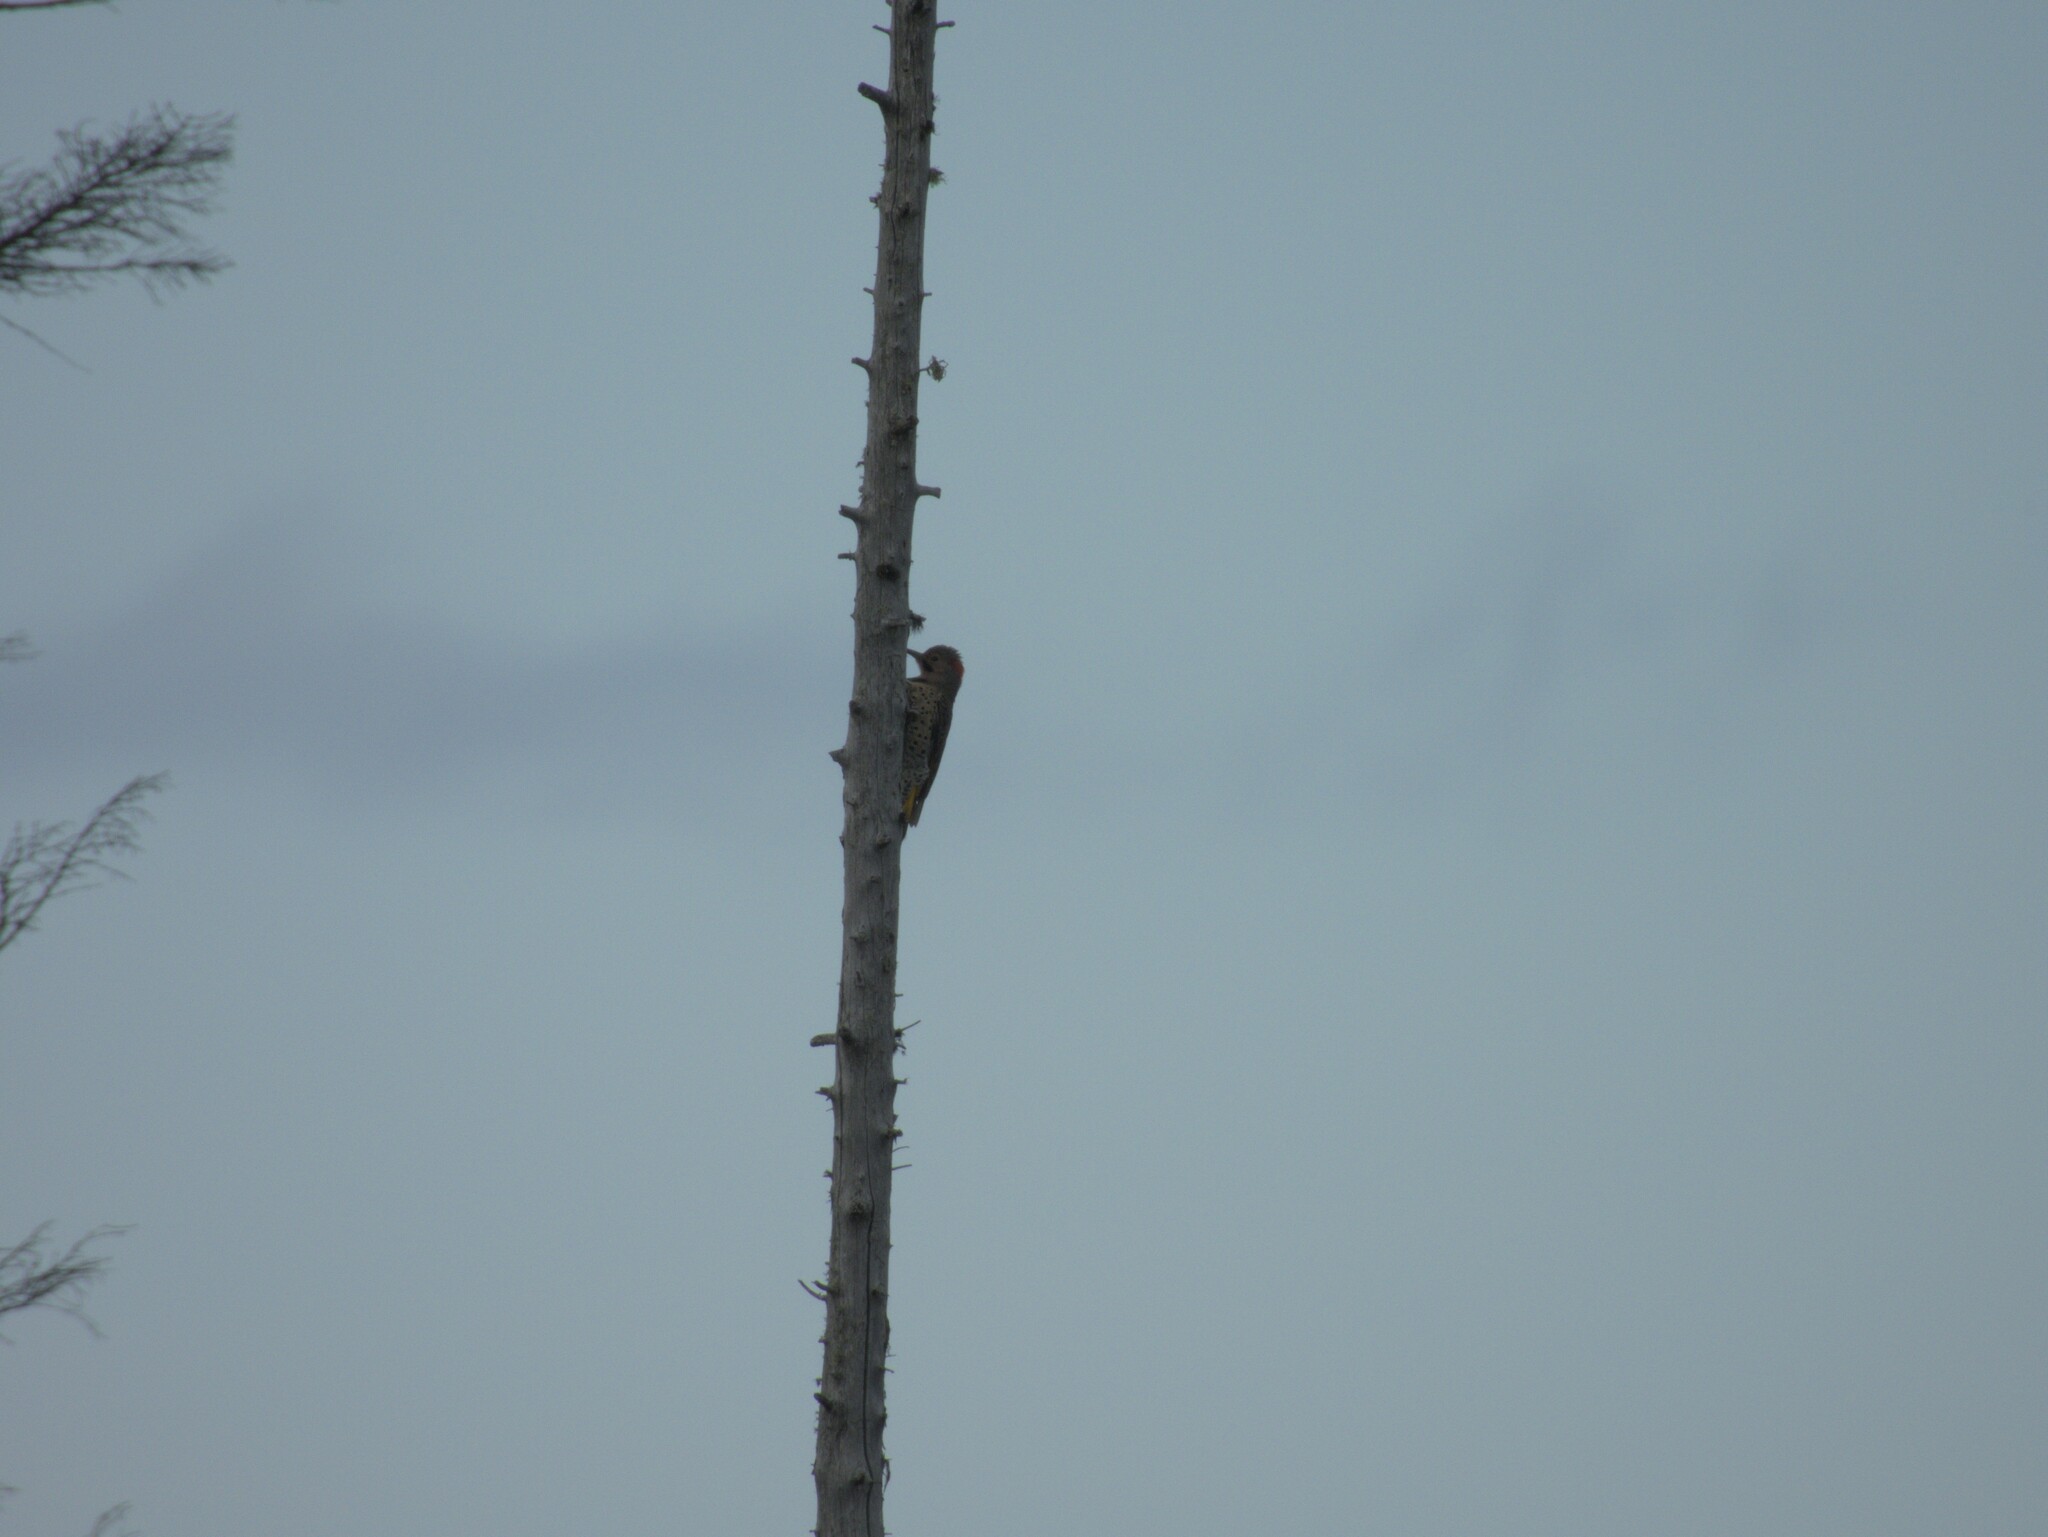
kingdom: Animalia
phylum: Chordata
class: Aves
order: Piciformes
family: Picidae
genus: Colaptes
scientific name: Colaptes auratus
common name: Northern flicker
